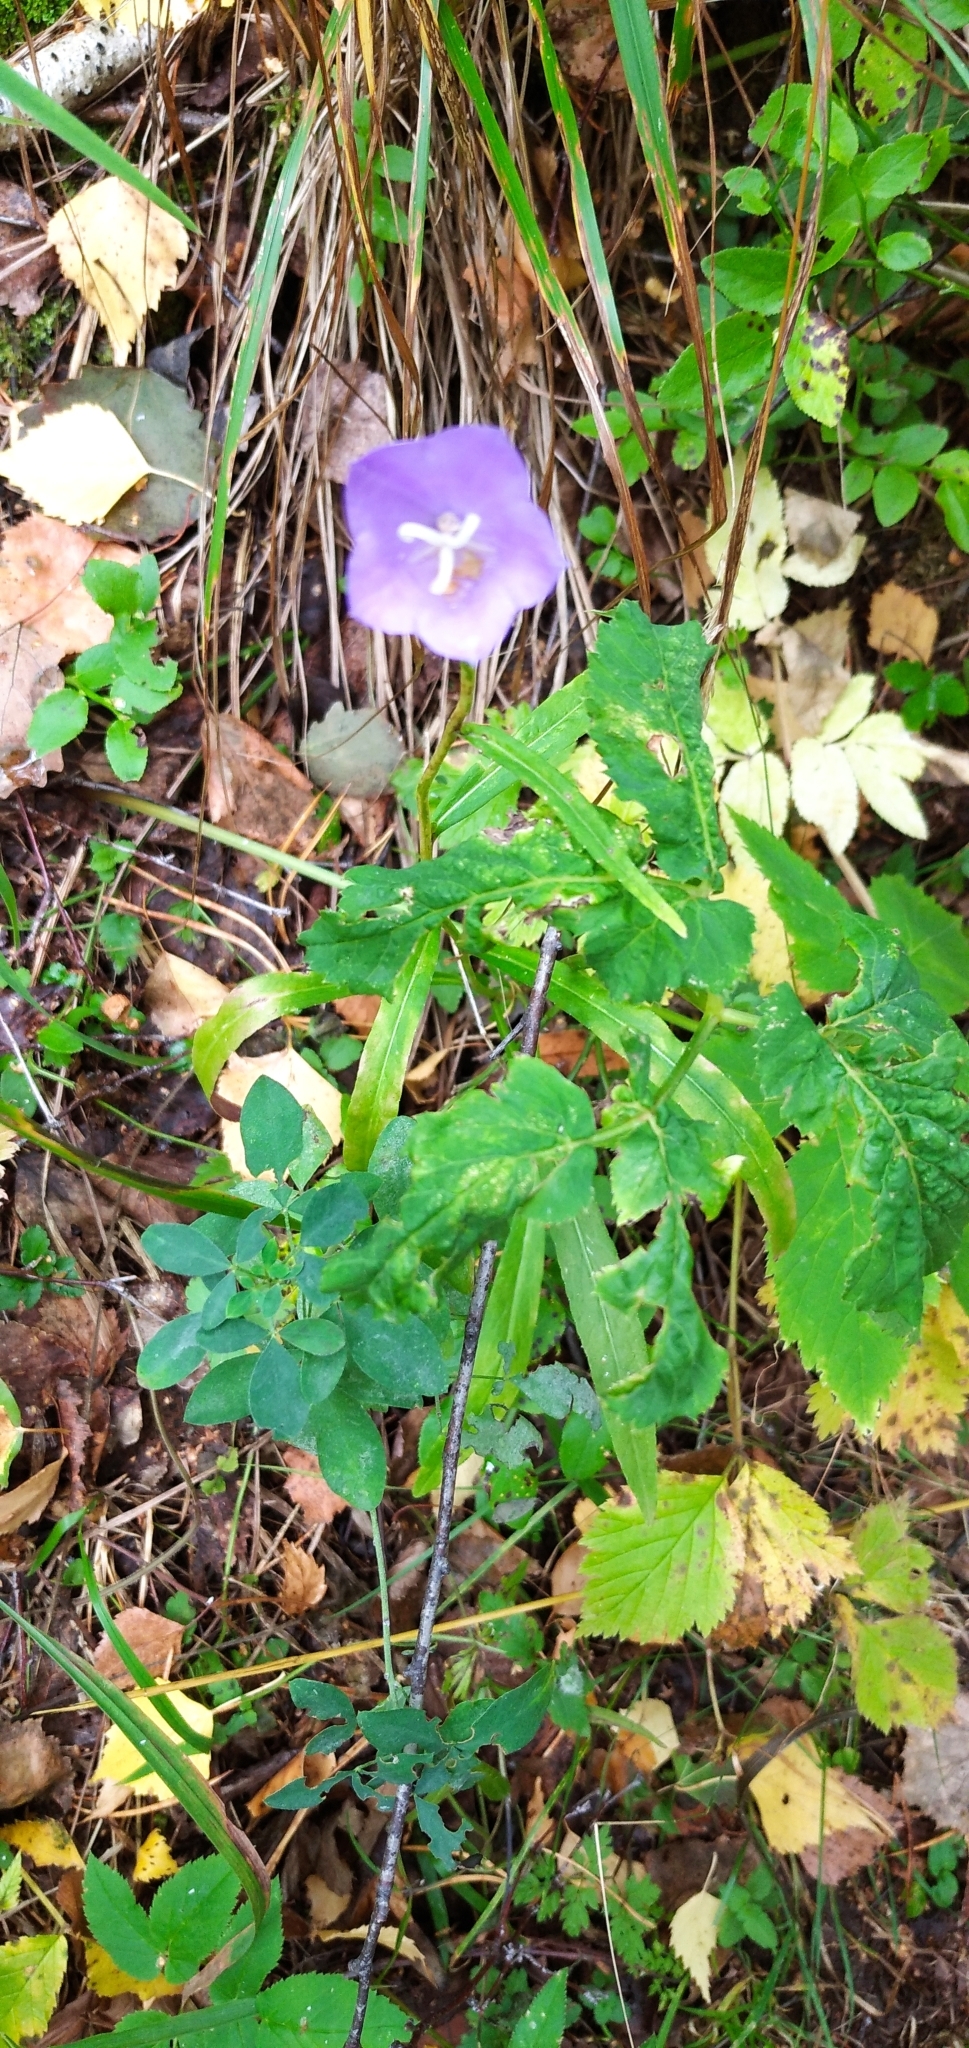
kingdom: Plantae
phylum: Tracheophyta
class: Magnoliopsida
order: Asterales
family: Campanulaceae
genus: Campanula
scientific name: Campanula persicifolia
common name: Peach-leaved bellflower
